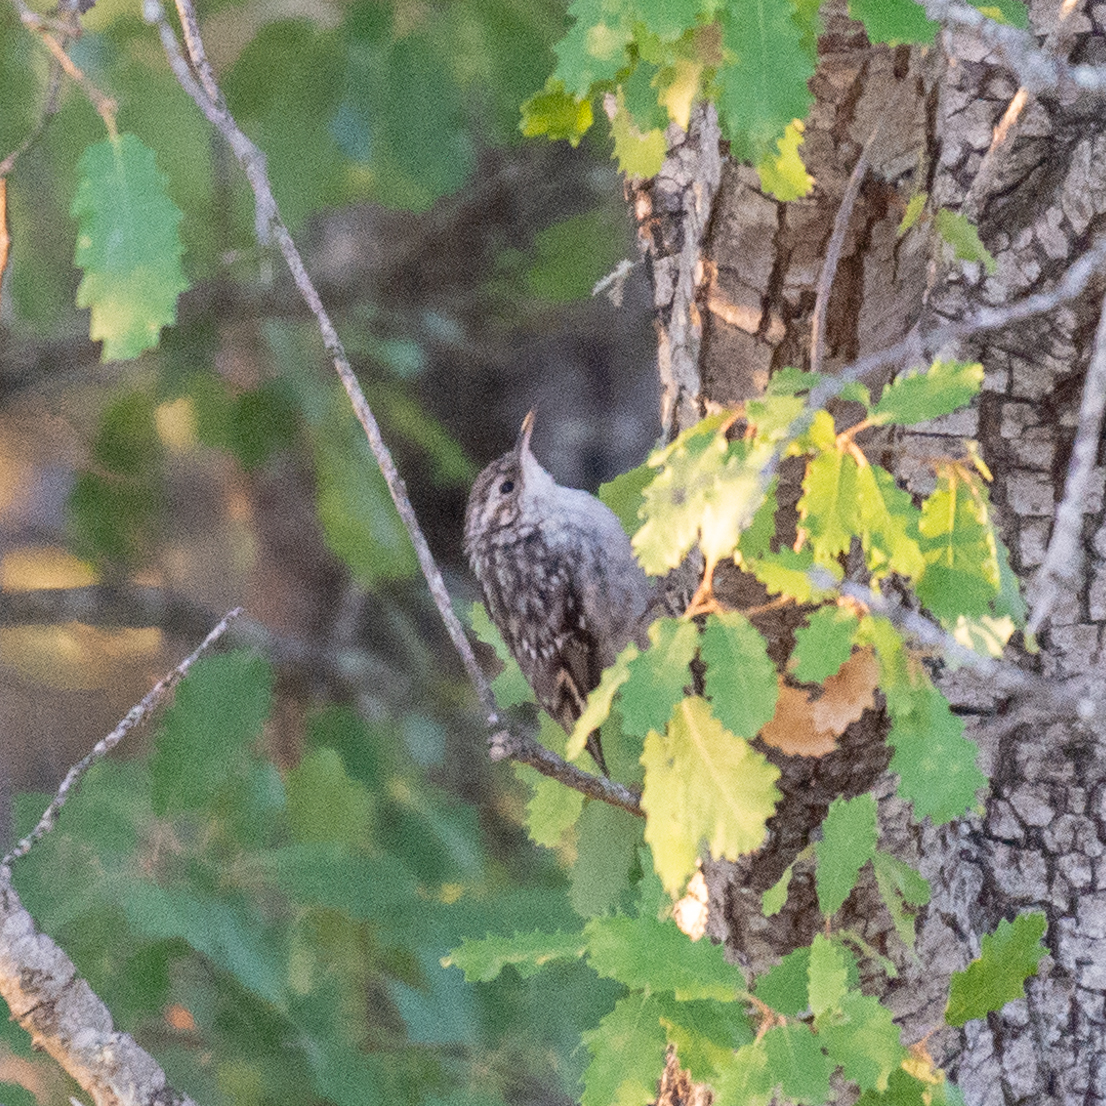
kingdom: Animalia
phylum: Chordata
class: Aves
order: Passeriformes
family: Certhiidae
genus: Certhia
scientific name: Certhia brachydactyla
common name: Short-toed treecreeper
